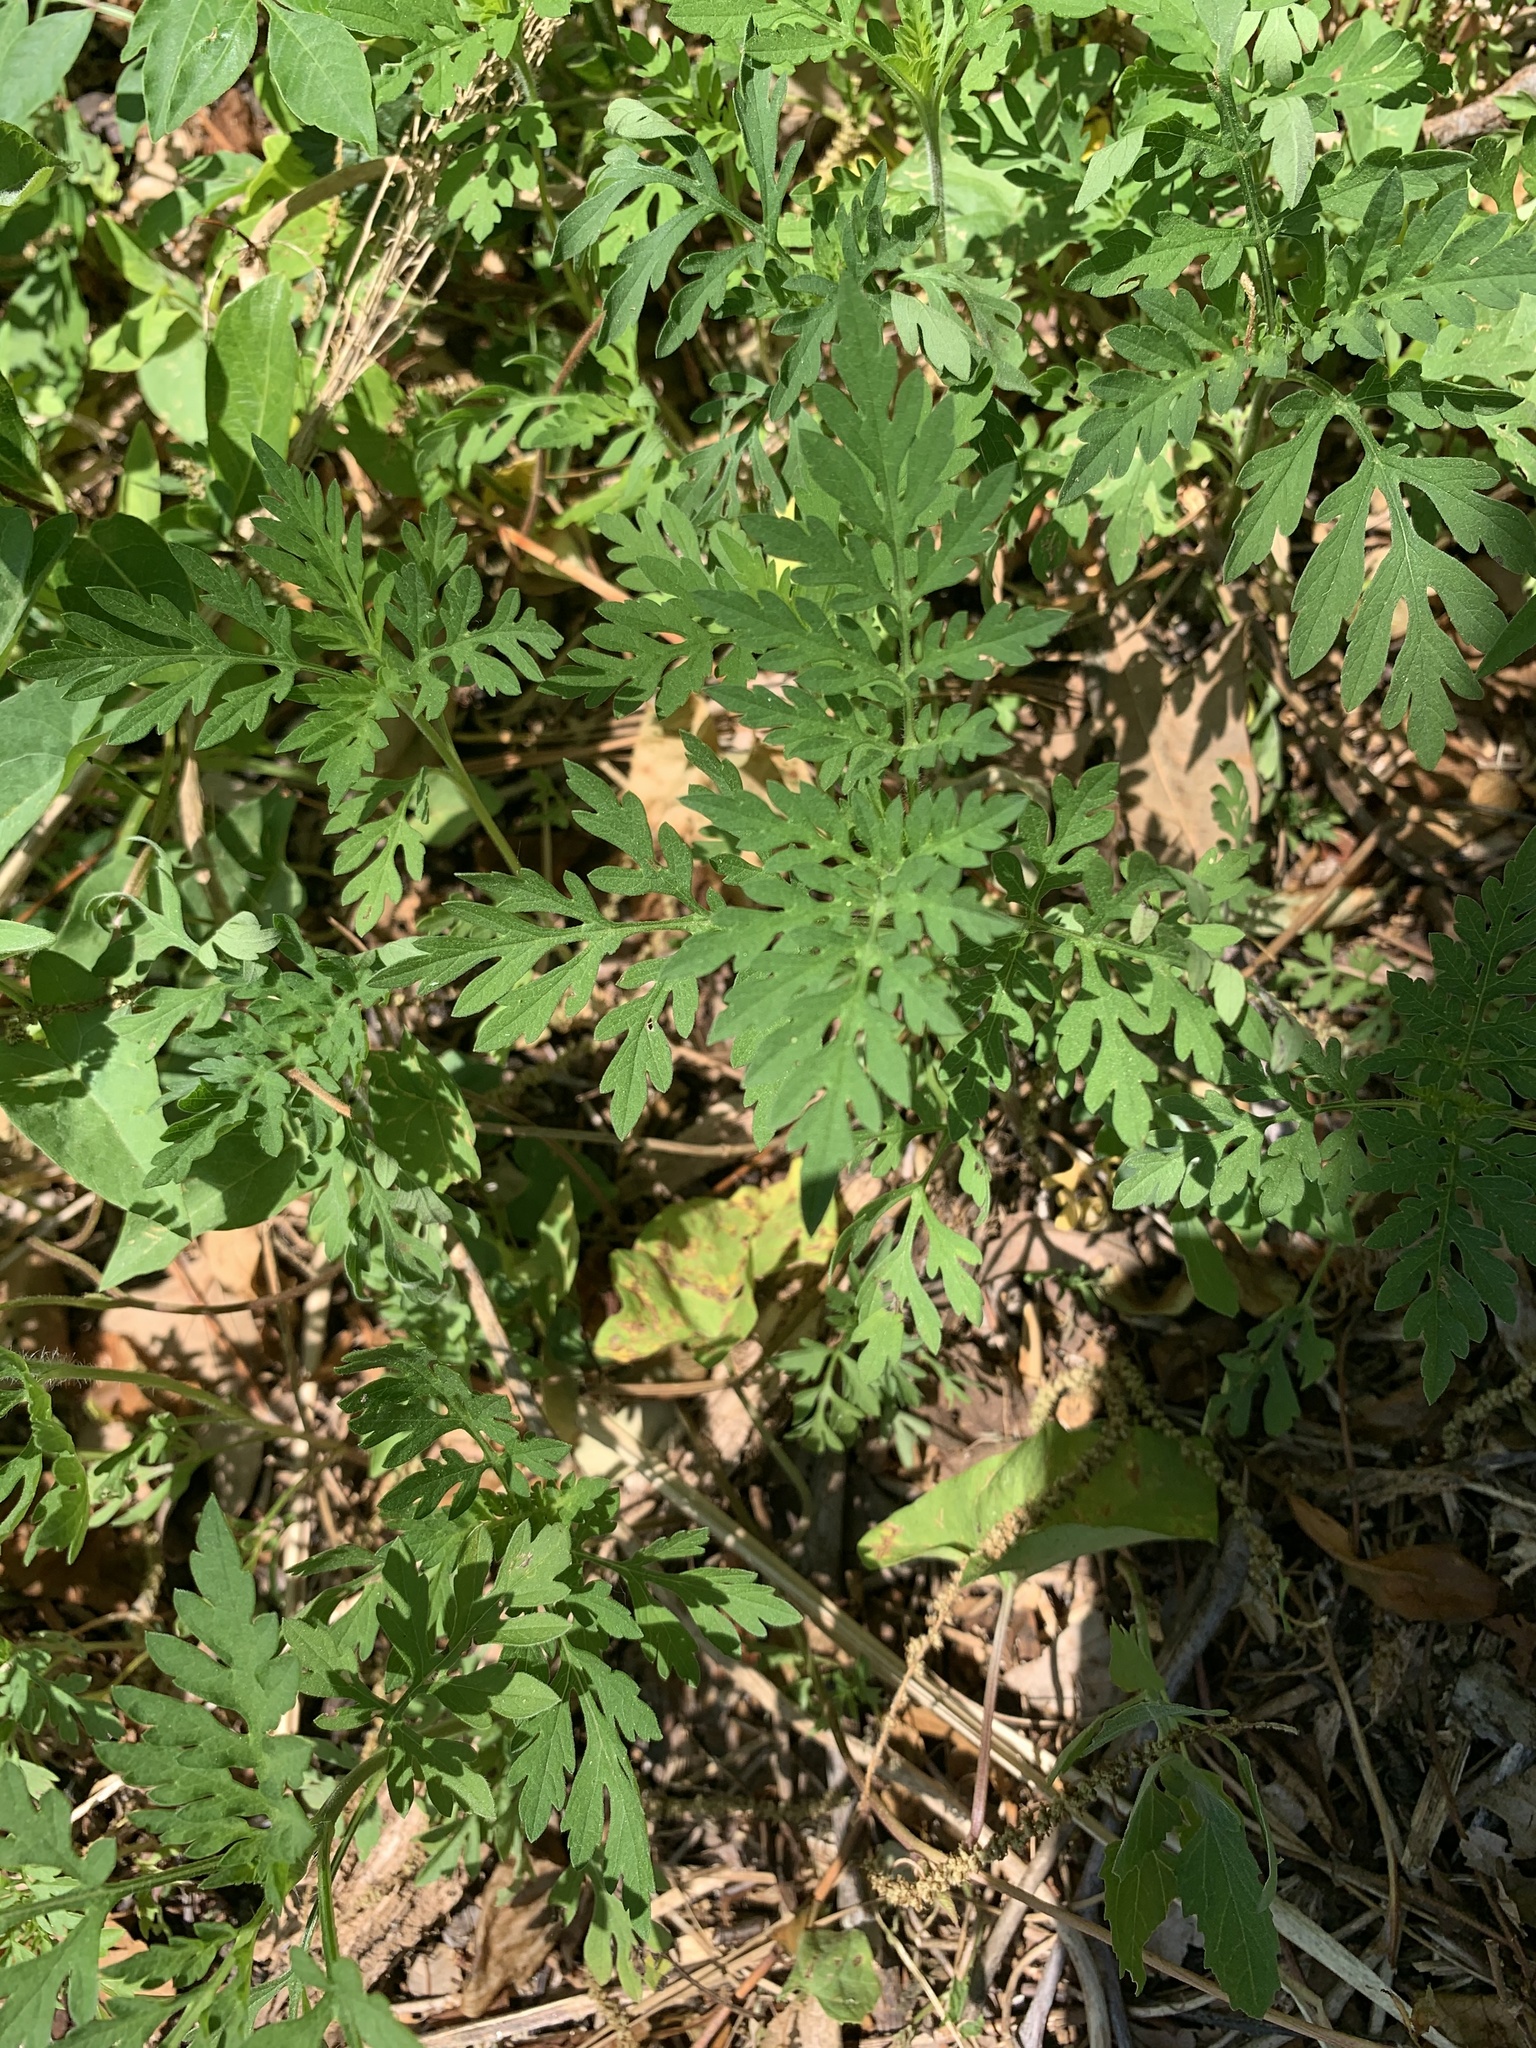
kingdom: Plantae
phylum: Tracheophyta
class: Magnoliopsida
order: Asterales
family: Asteraceae
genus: Ambrosia
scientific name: Ambrosia artemisiifolia
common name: Annual ragweed
